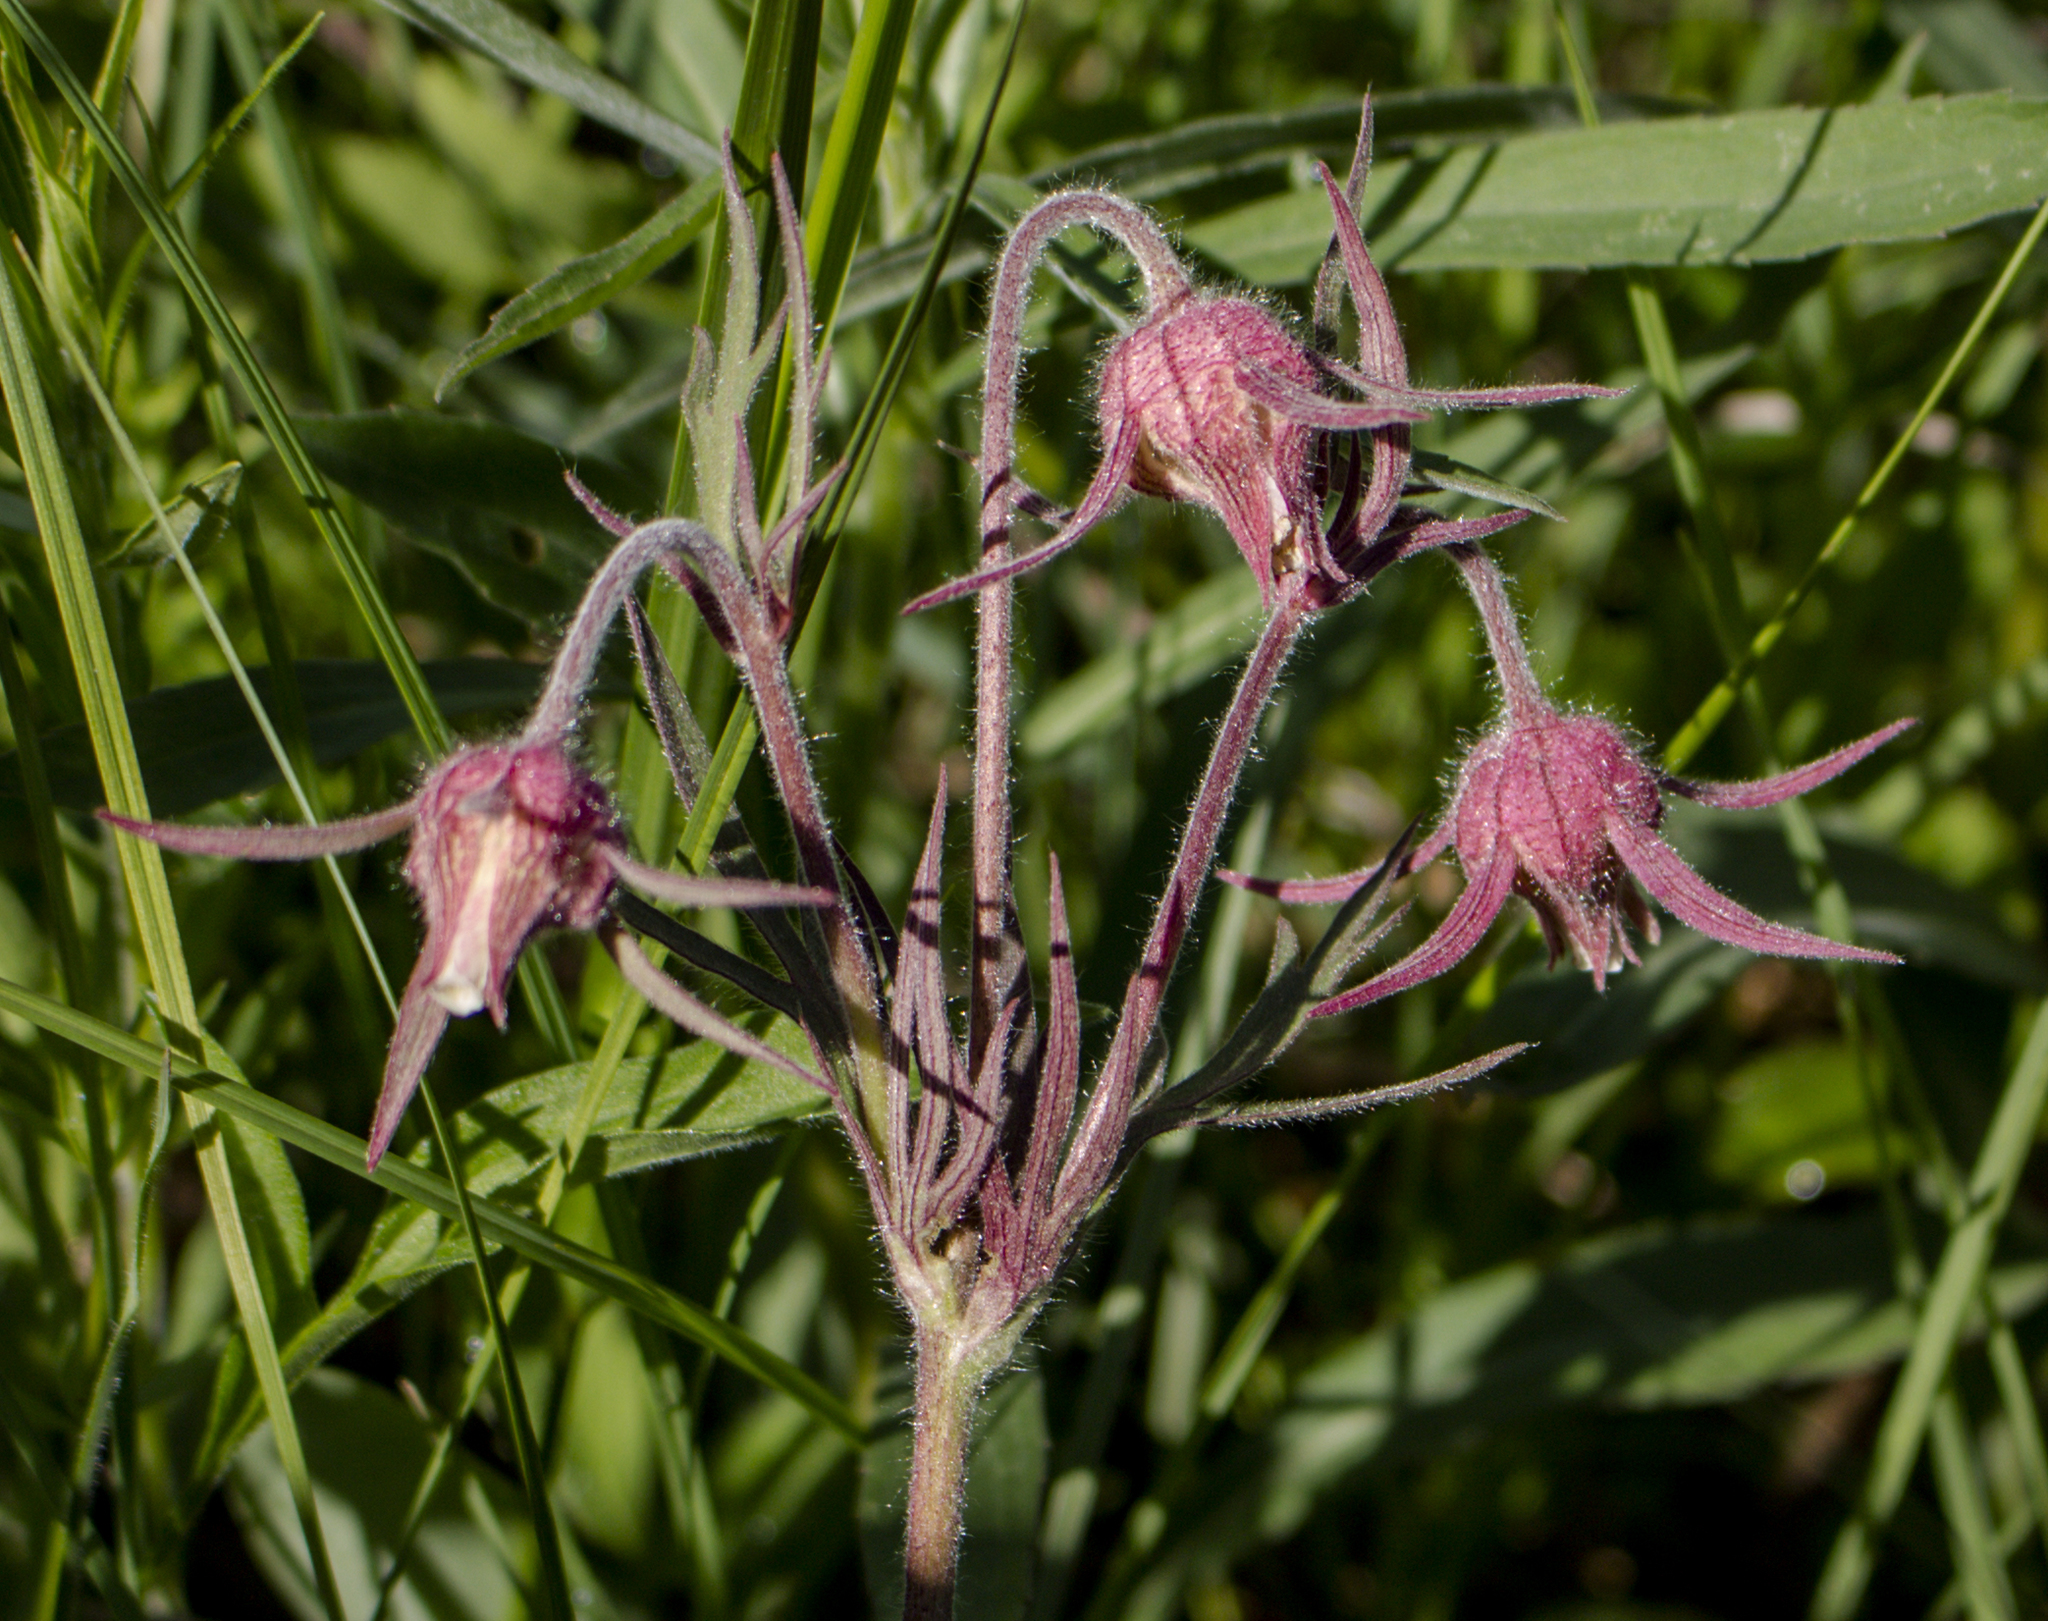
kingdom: Plantae
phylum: Tracheophyta
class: Magnoliopsida
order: Rosales
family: Rosaceae
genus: Geum
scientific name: Geum triflorum
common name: Old man's whiskers
